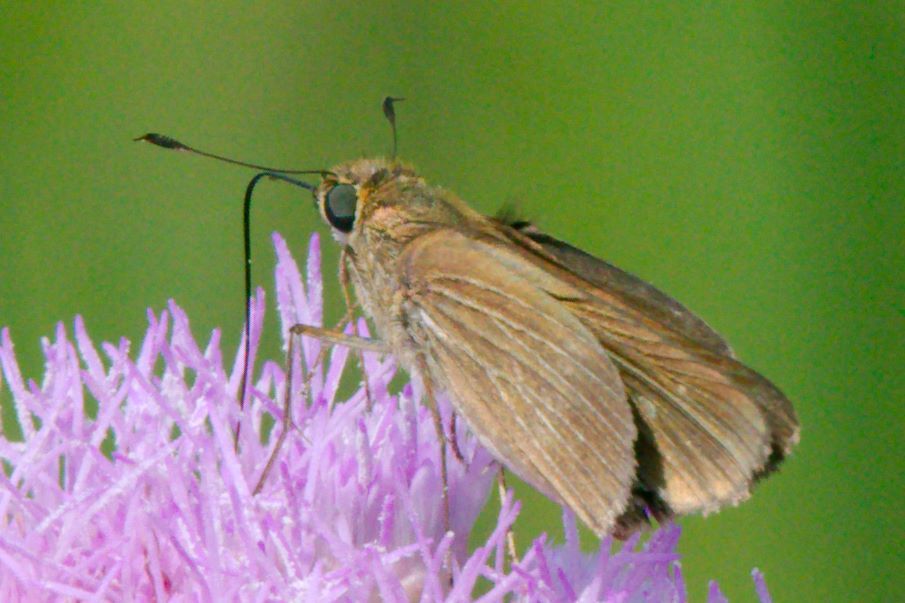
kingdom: Animalia
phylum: Arthropoda
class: Insecta
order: Lepidoptera
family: Hesperiidae
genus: Panoquina
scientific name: Panoquina ocola
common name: Ocola skipper
